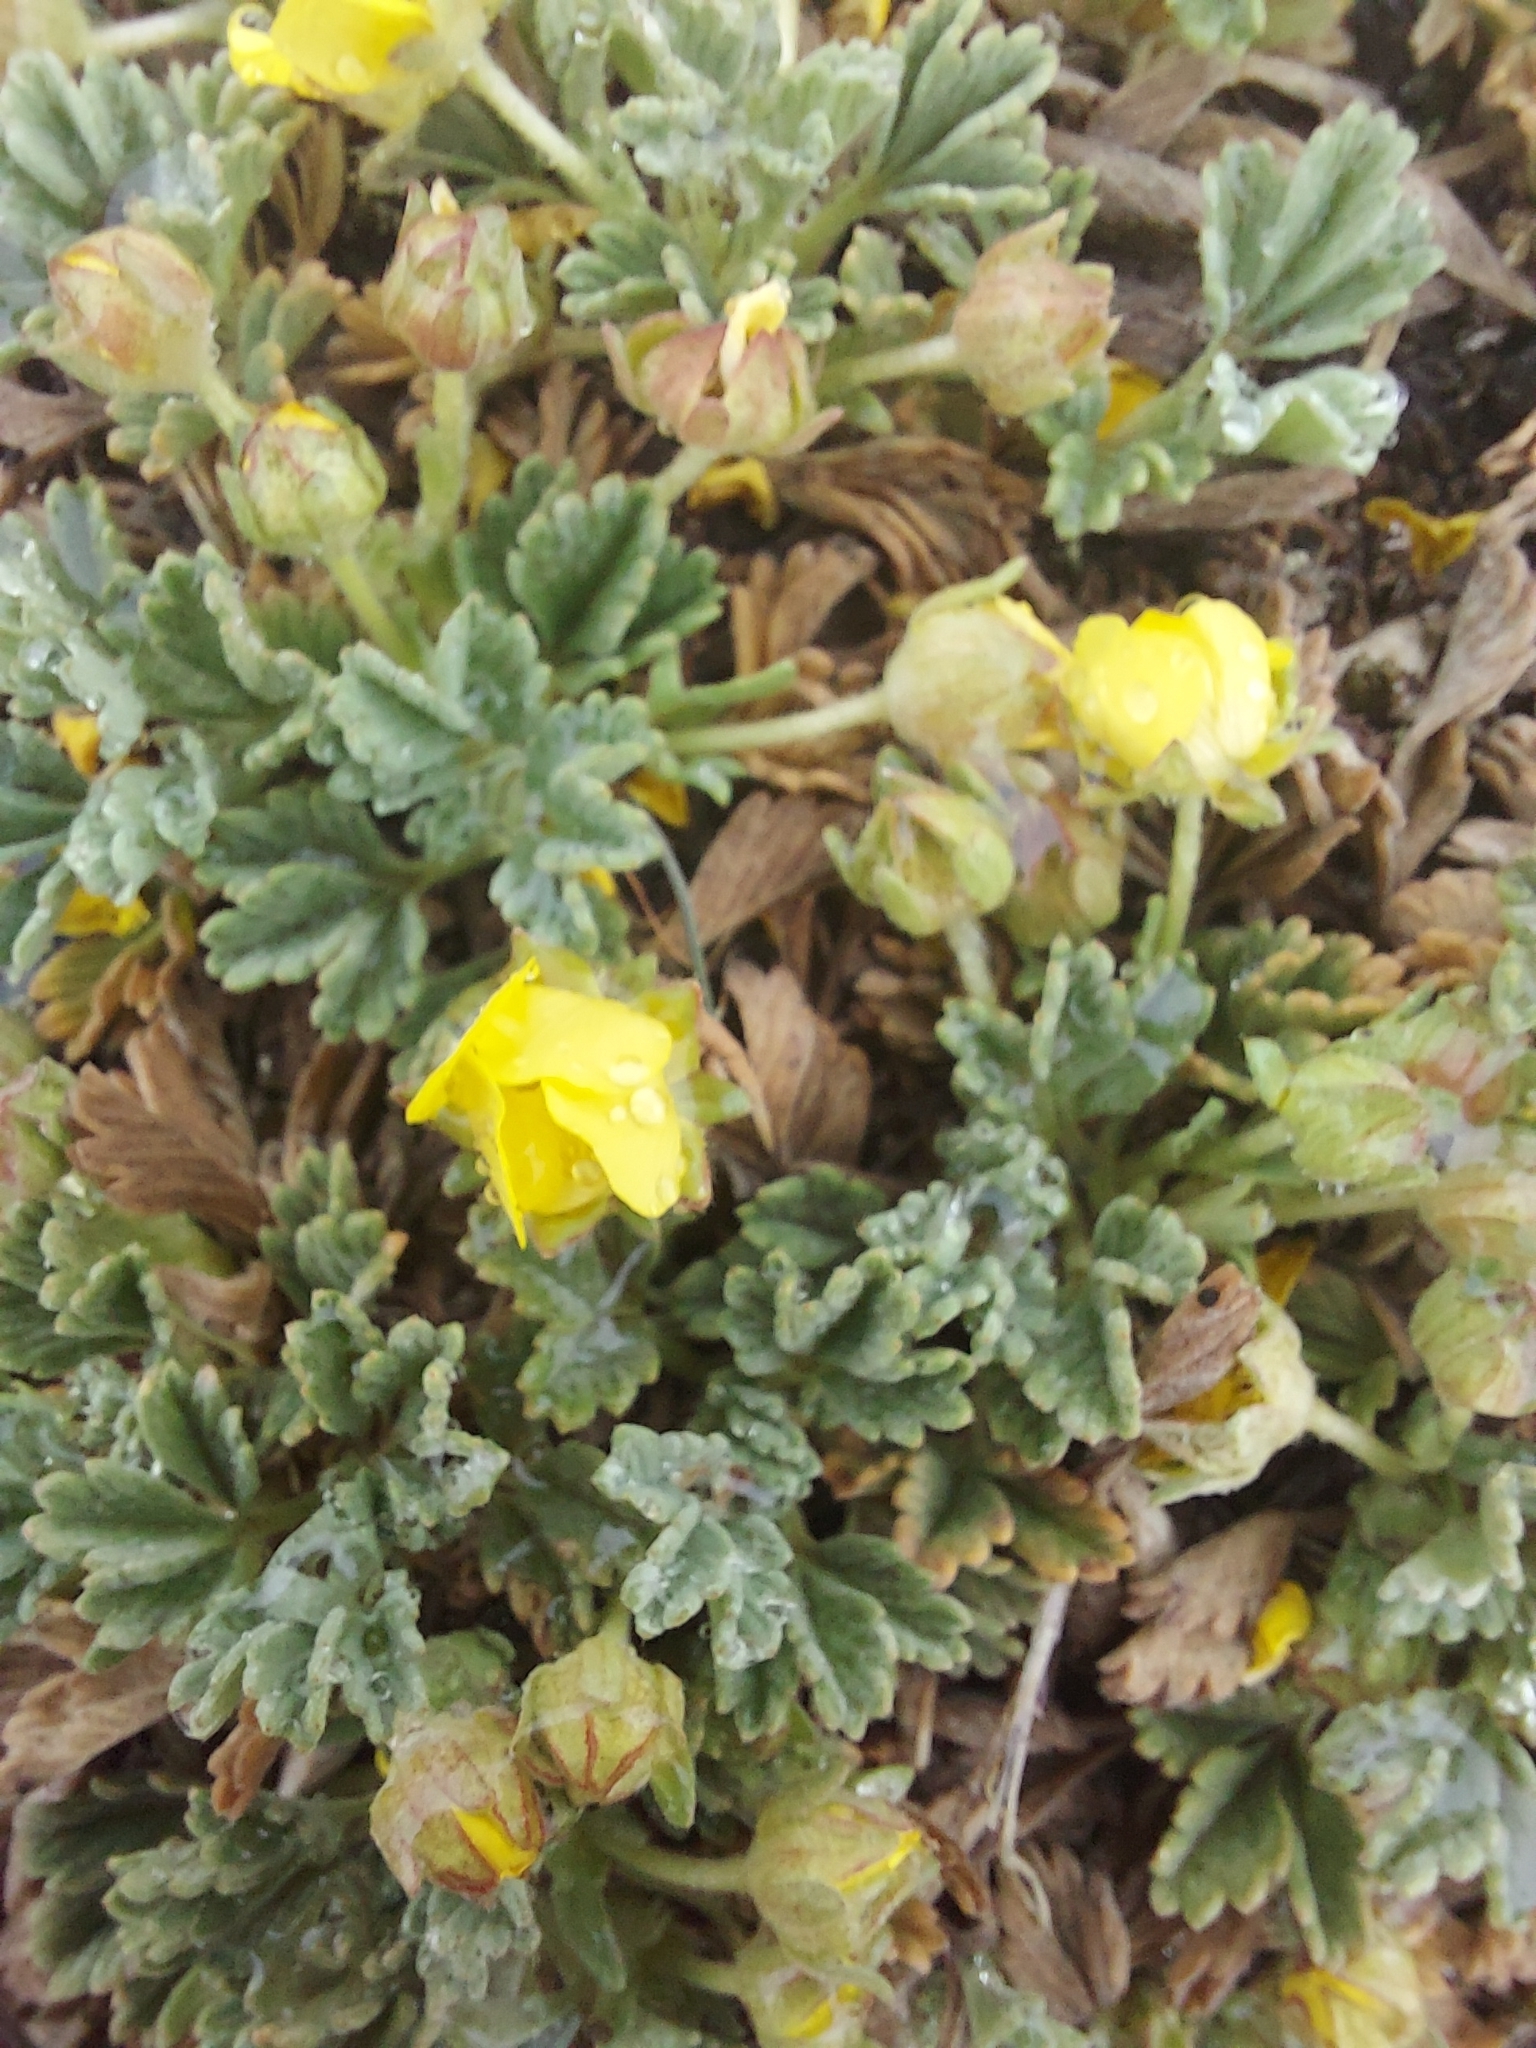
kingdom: Plantae
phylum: Tracheophyta
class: Magnoliopsida
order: Rosales
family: Rosaceae
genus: Potentilla
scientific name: Potentilla acaulis
